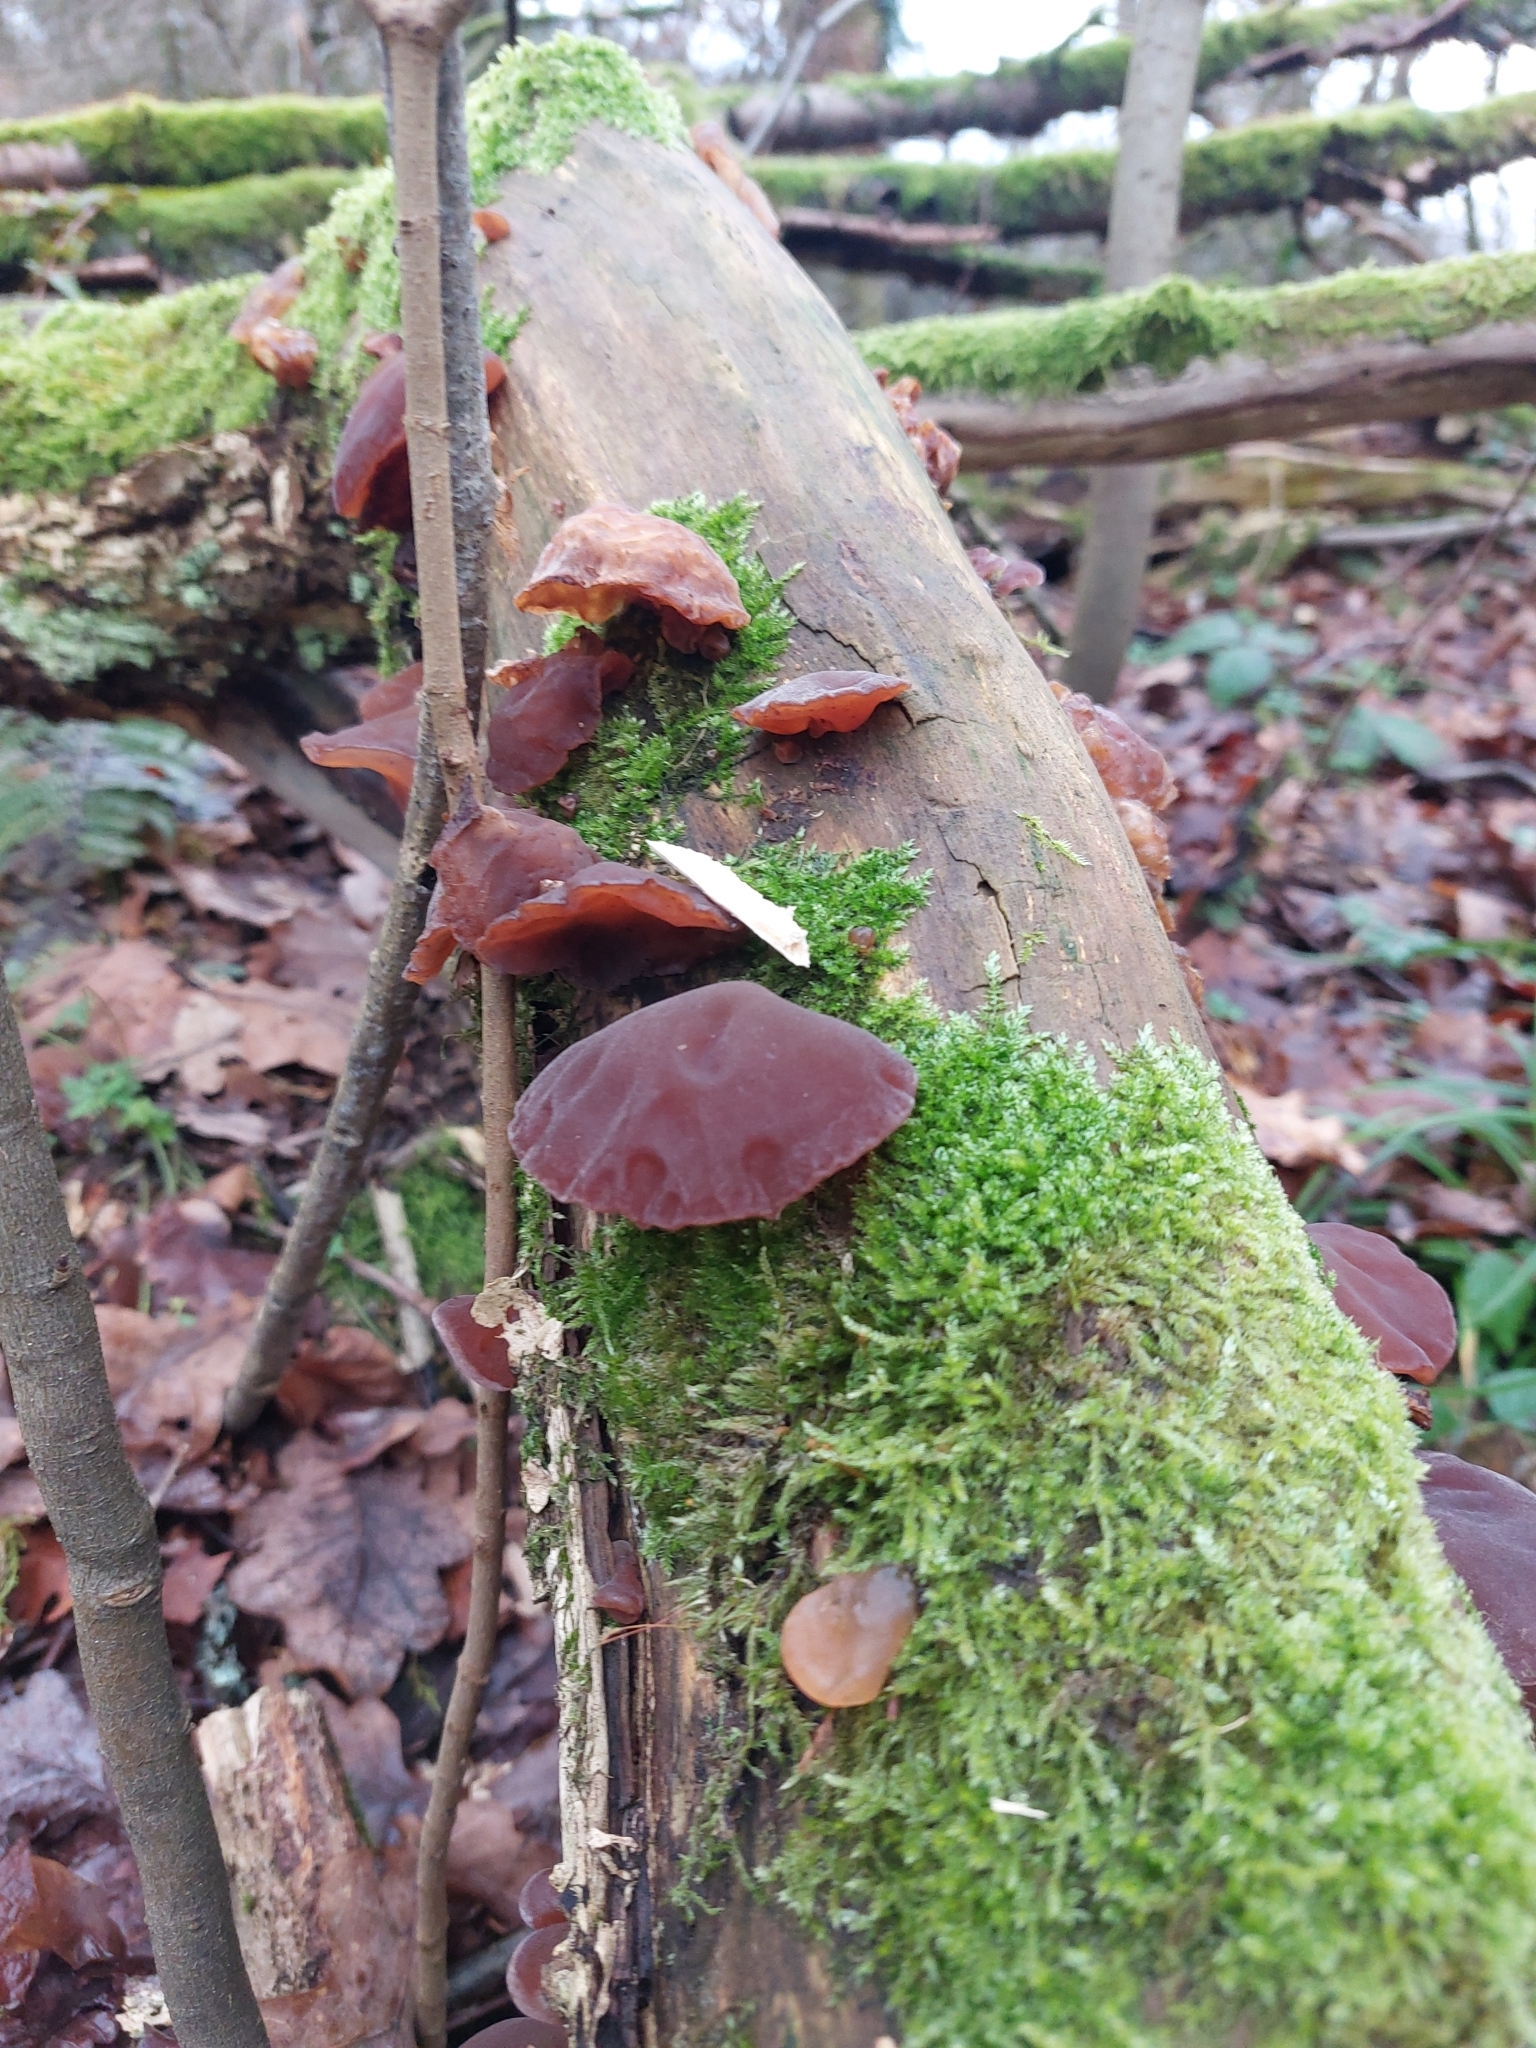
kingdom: Fungi
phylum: Basidiomycota
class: Agaricomycetes
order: Auriculariales
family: Auriculariaceae
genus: Auricularia
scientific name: Auricularia auricula-judae
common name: Jelly ear
